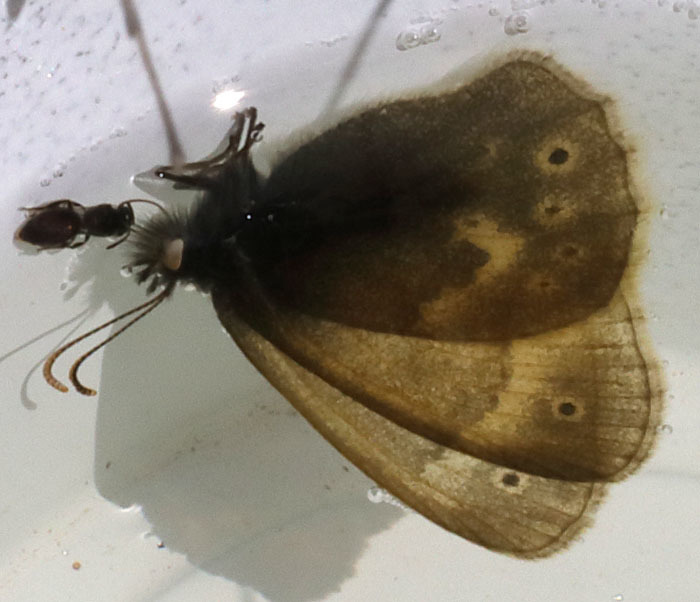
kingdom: Animalia
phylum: Arthropoda
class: Insecta
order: Lepidoptera
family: Nymphalidae
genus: Coenonympha
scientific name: Coenonympha california
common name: Common ringlet
